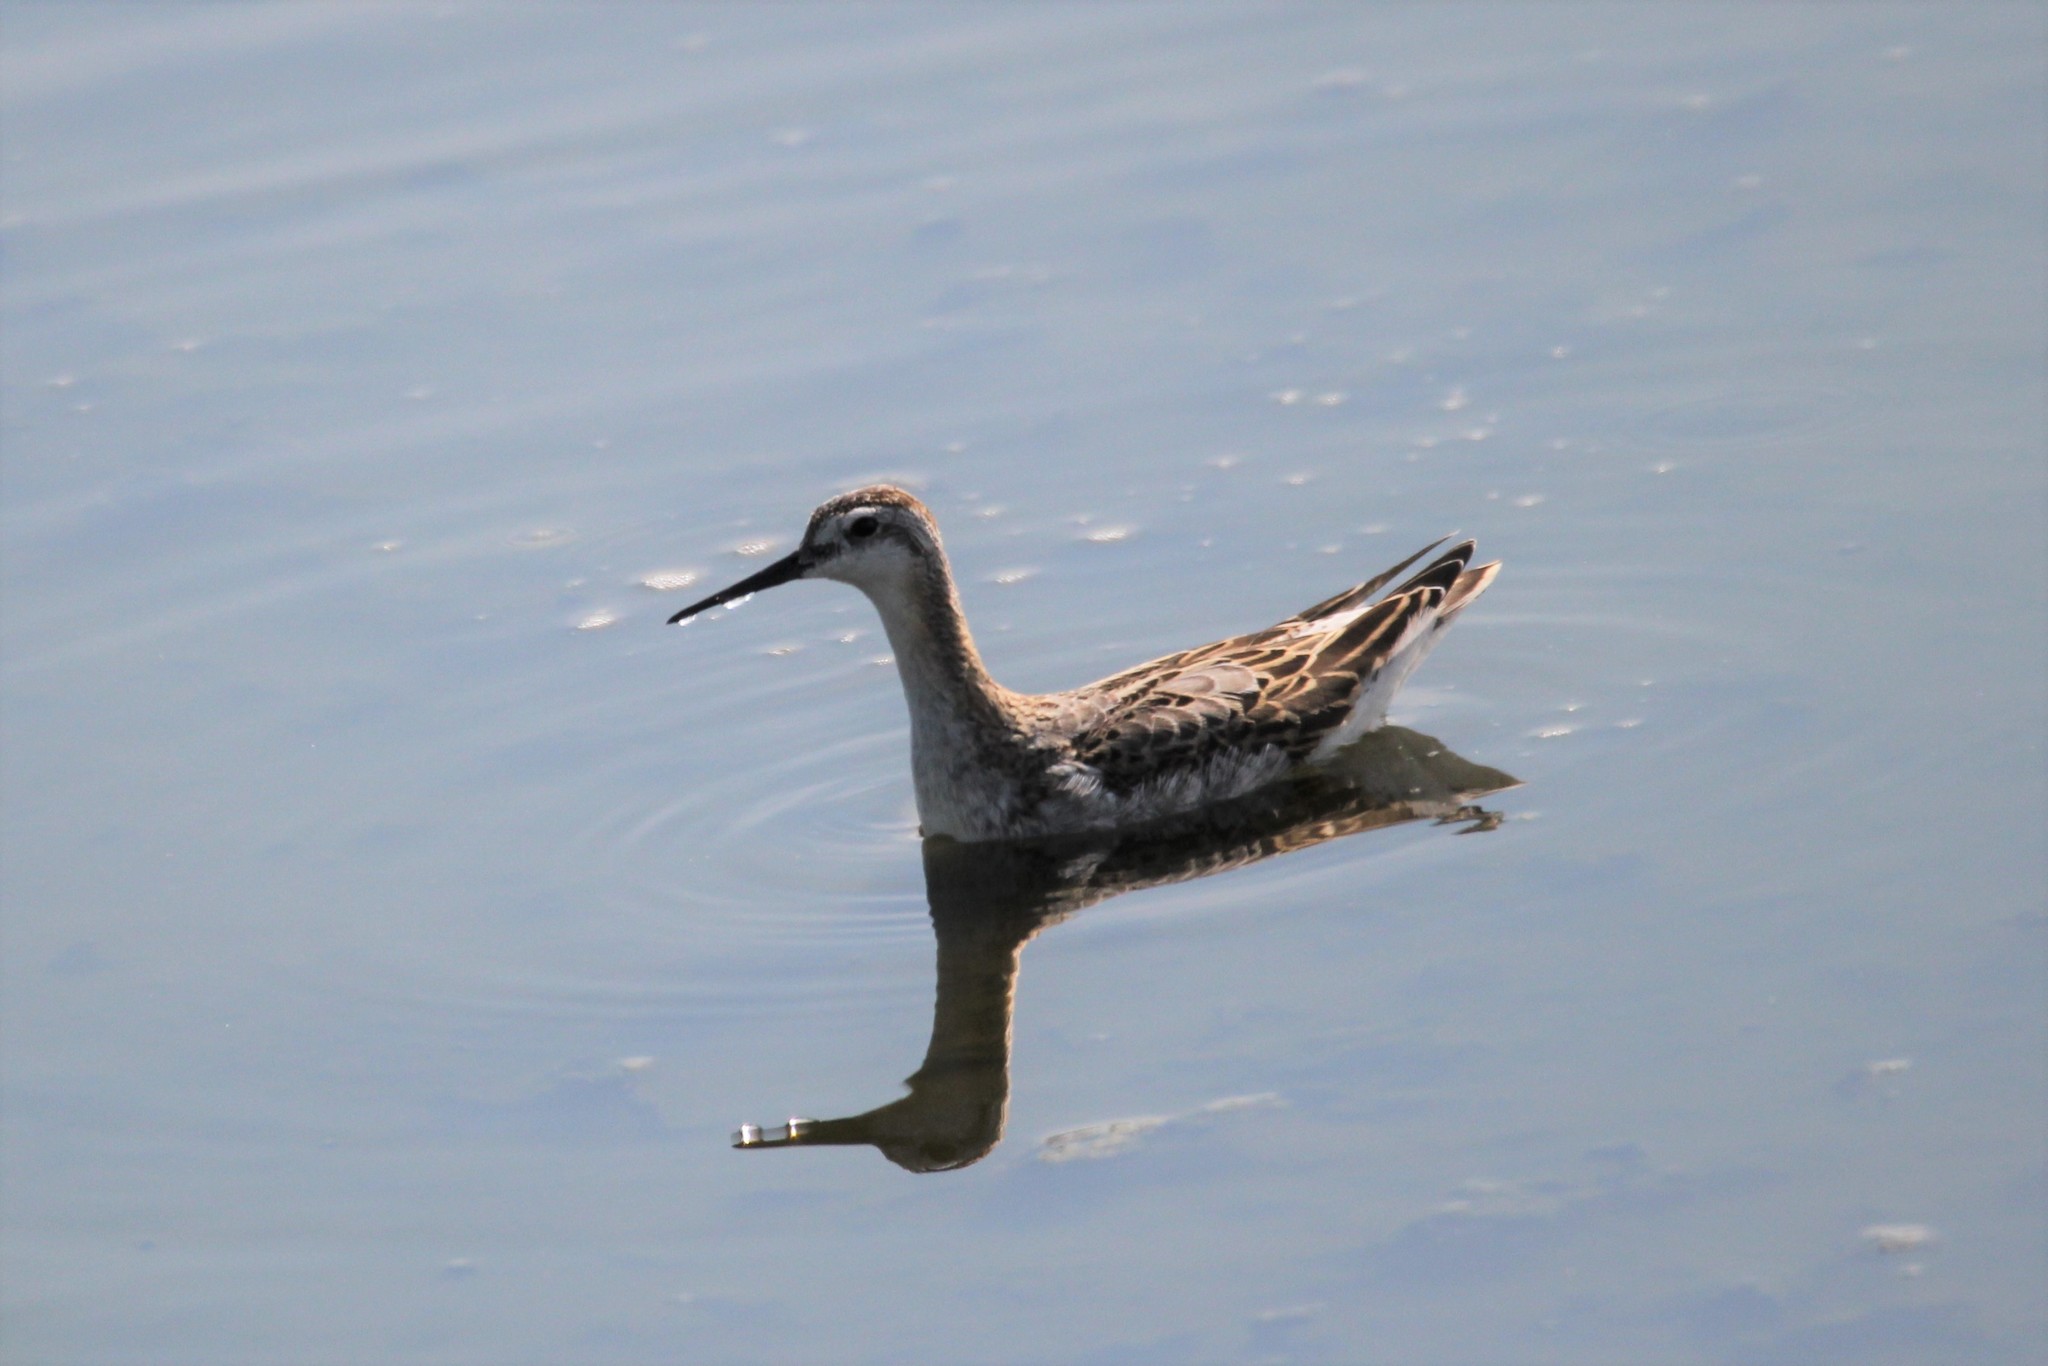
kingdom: Animalia
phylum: Chordata
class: Aves
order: Charadriiformes
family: Scolopacidae
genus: Phalaropus
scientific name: Phalaropus tricolor
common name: Wilson's phalarope
